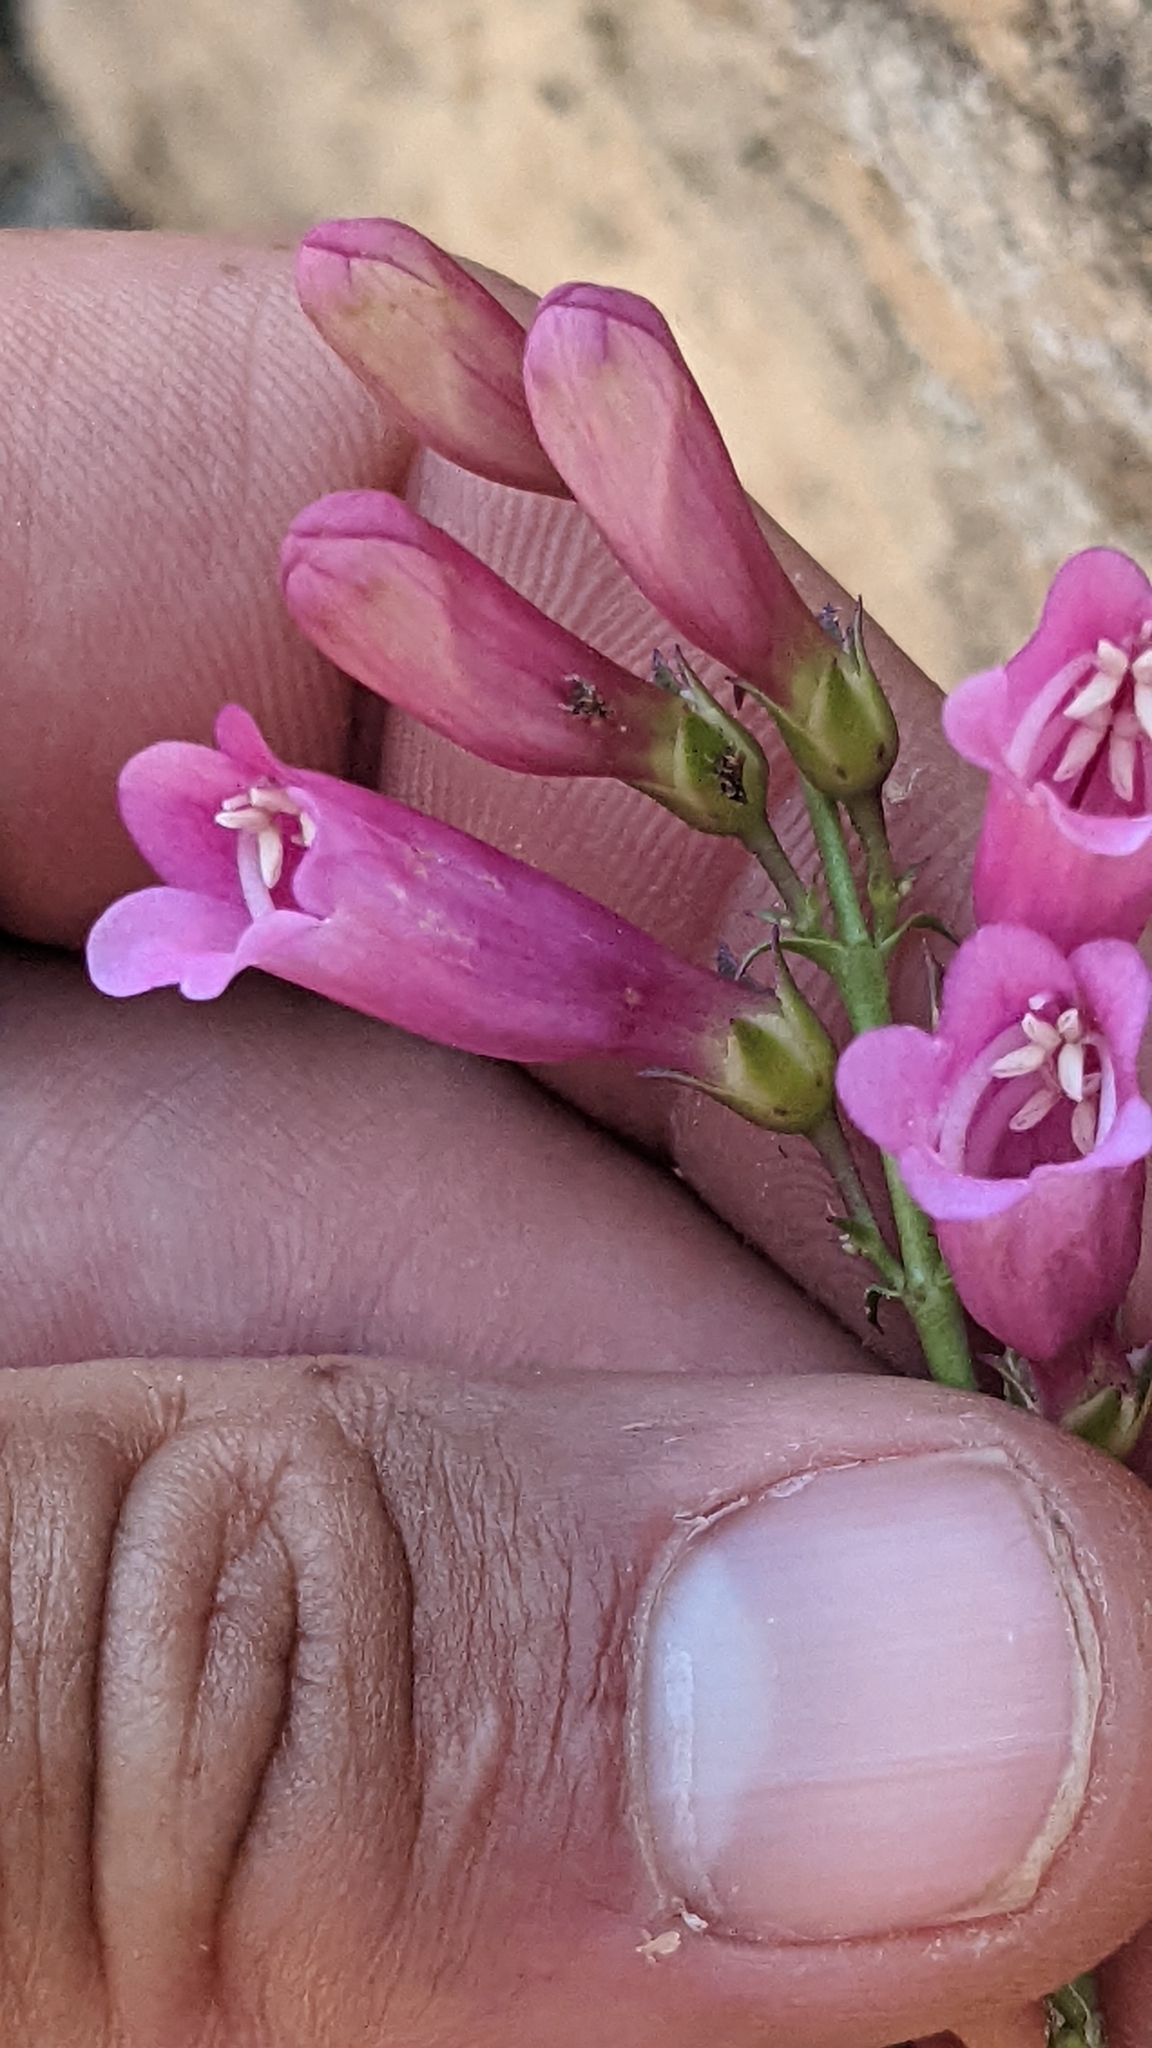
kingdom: Plantae
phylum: Tracheophyta
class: Magnoliopsida
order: Lamiales
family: Plantaginaceae
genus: Penstemon
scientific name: Penstemon jonesii
